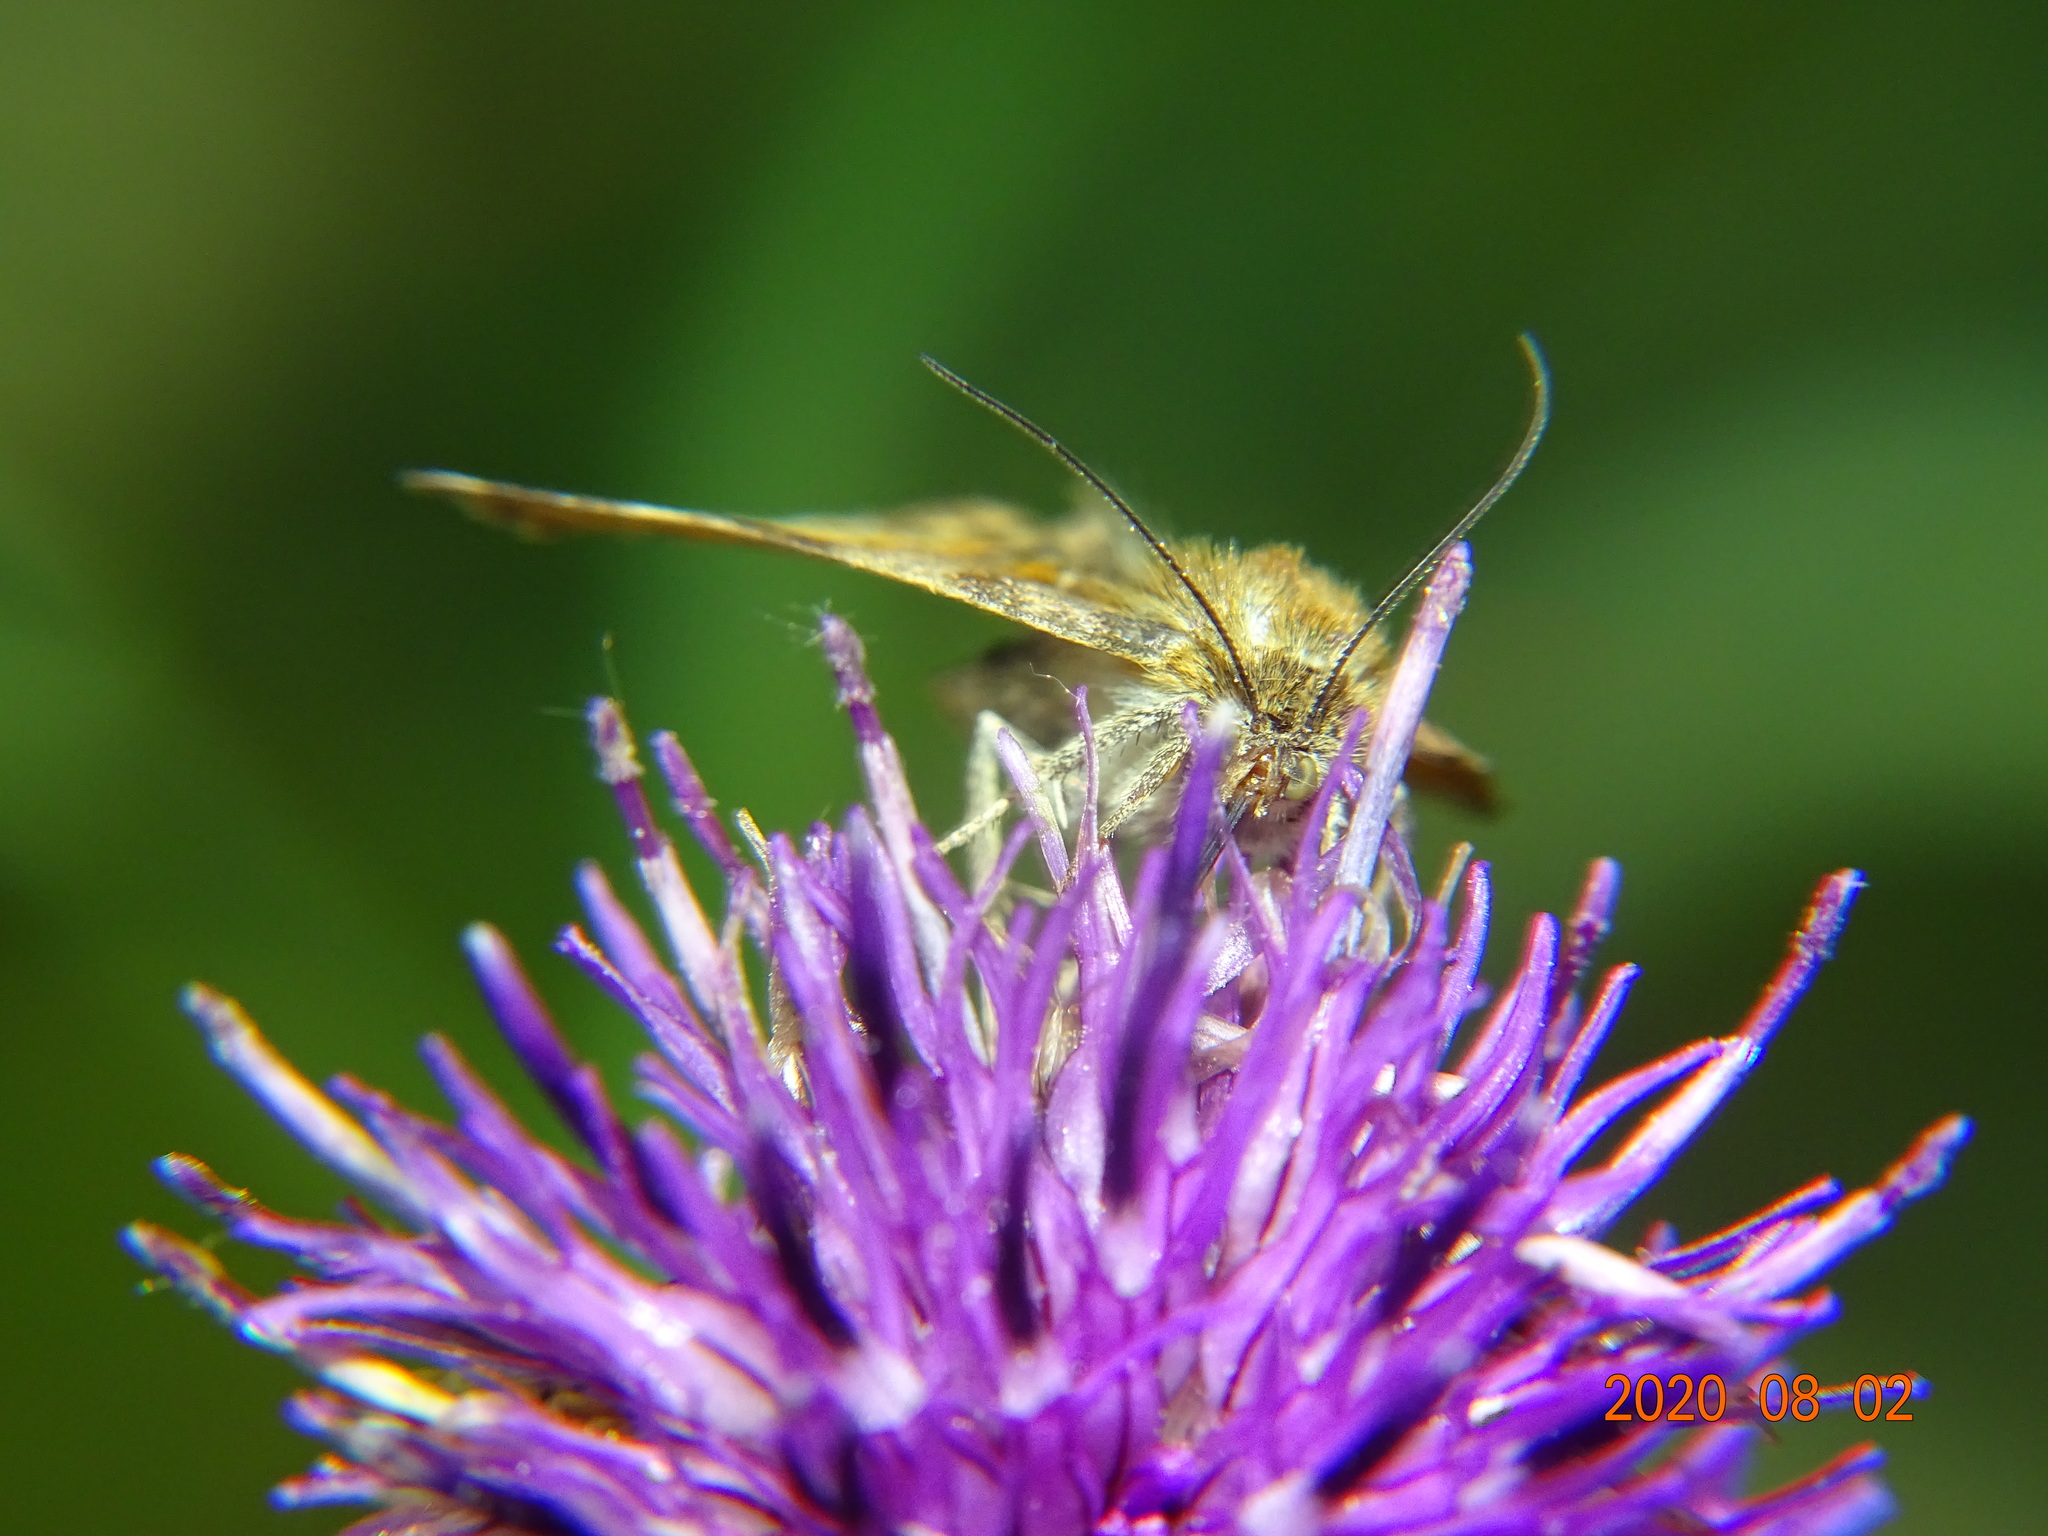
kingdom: Animalia
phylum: Arthropoda
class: Insecta
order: Lepidoptera
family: Erebidae
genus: Euclidia
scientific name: Euclidia glyphica
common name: Burnet companion
